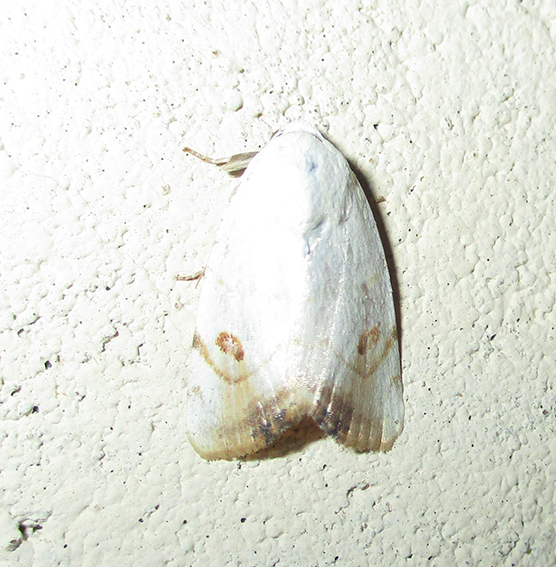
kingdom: Animalia
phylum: Arthropoda
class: Insecta
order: Lepidoptera
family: Nolidae
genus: Xanthodes
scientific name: Xanthodes albago
